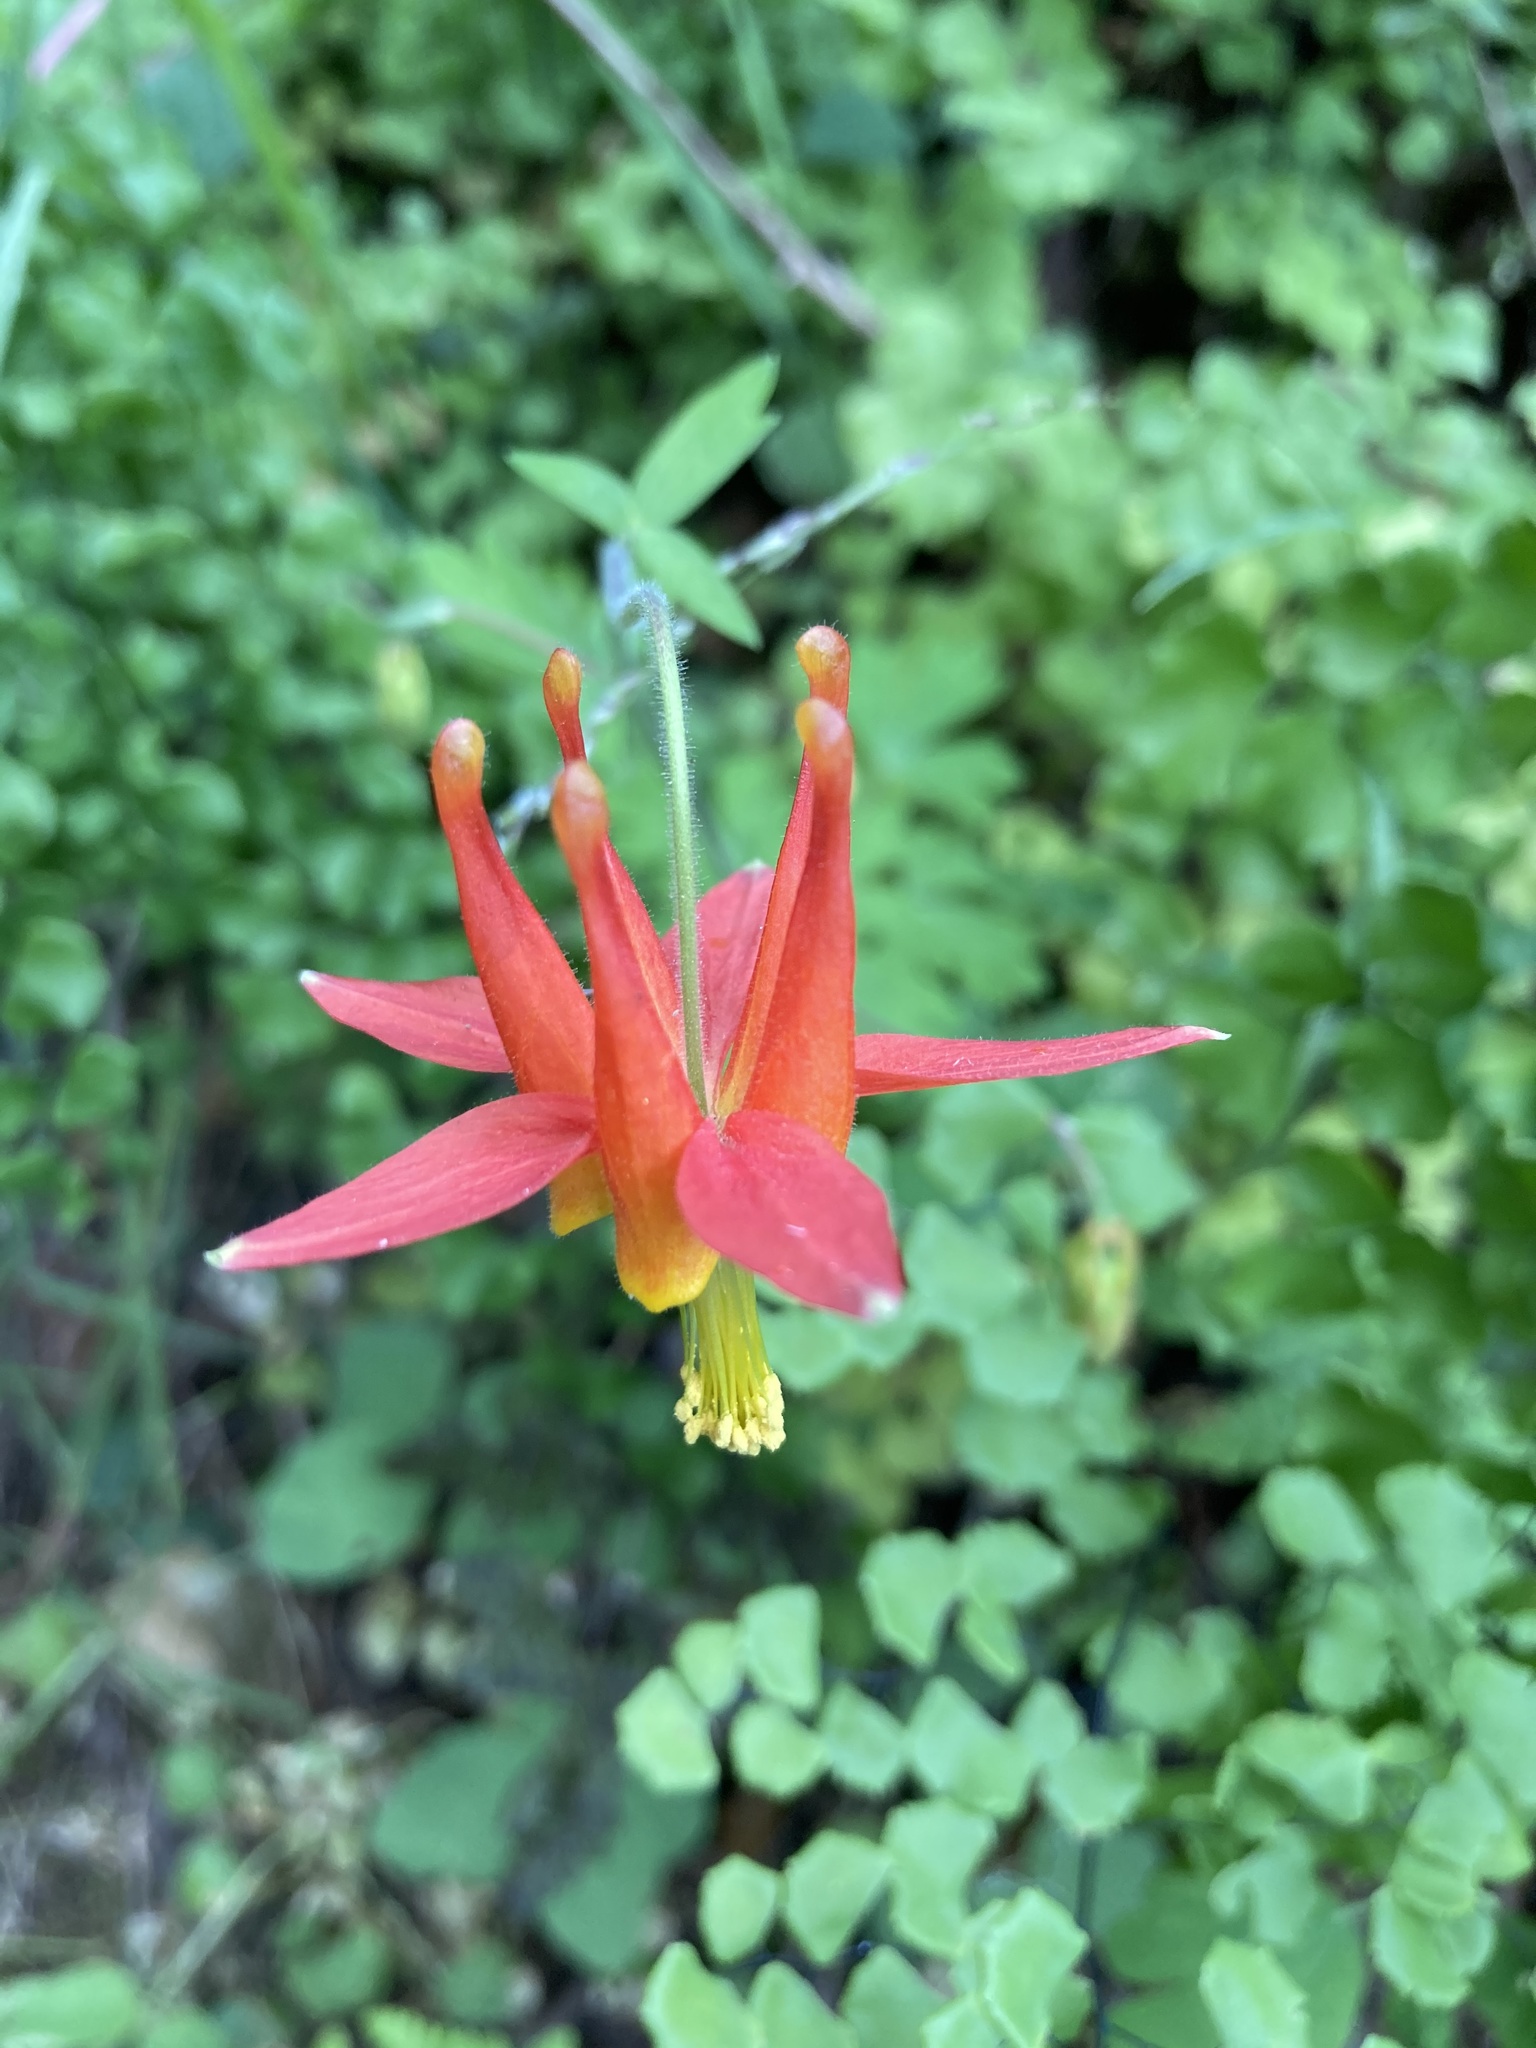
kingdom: Plantae
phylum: Tracheophyta
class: Magnoliopsida
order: Ranunculales
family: Ranunculaceae
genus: Aquilegia
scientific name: Aquilegia formosa
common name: Sitka columbine
